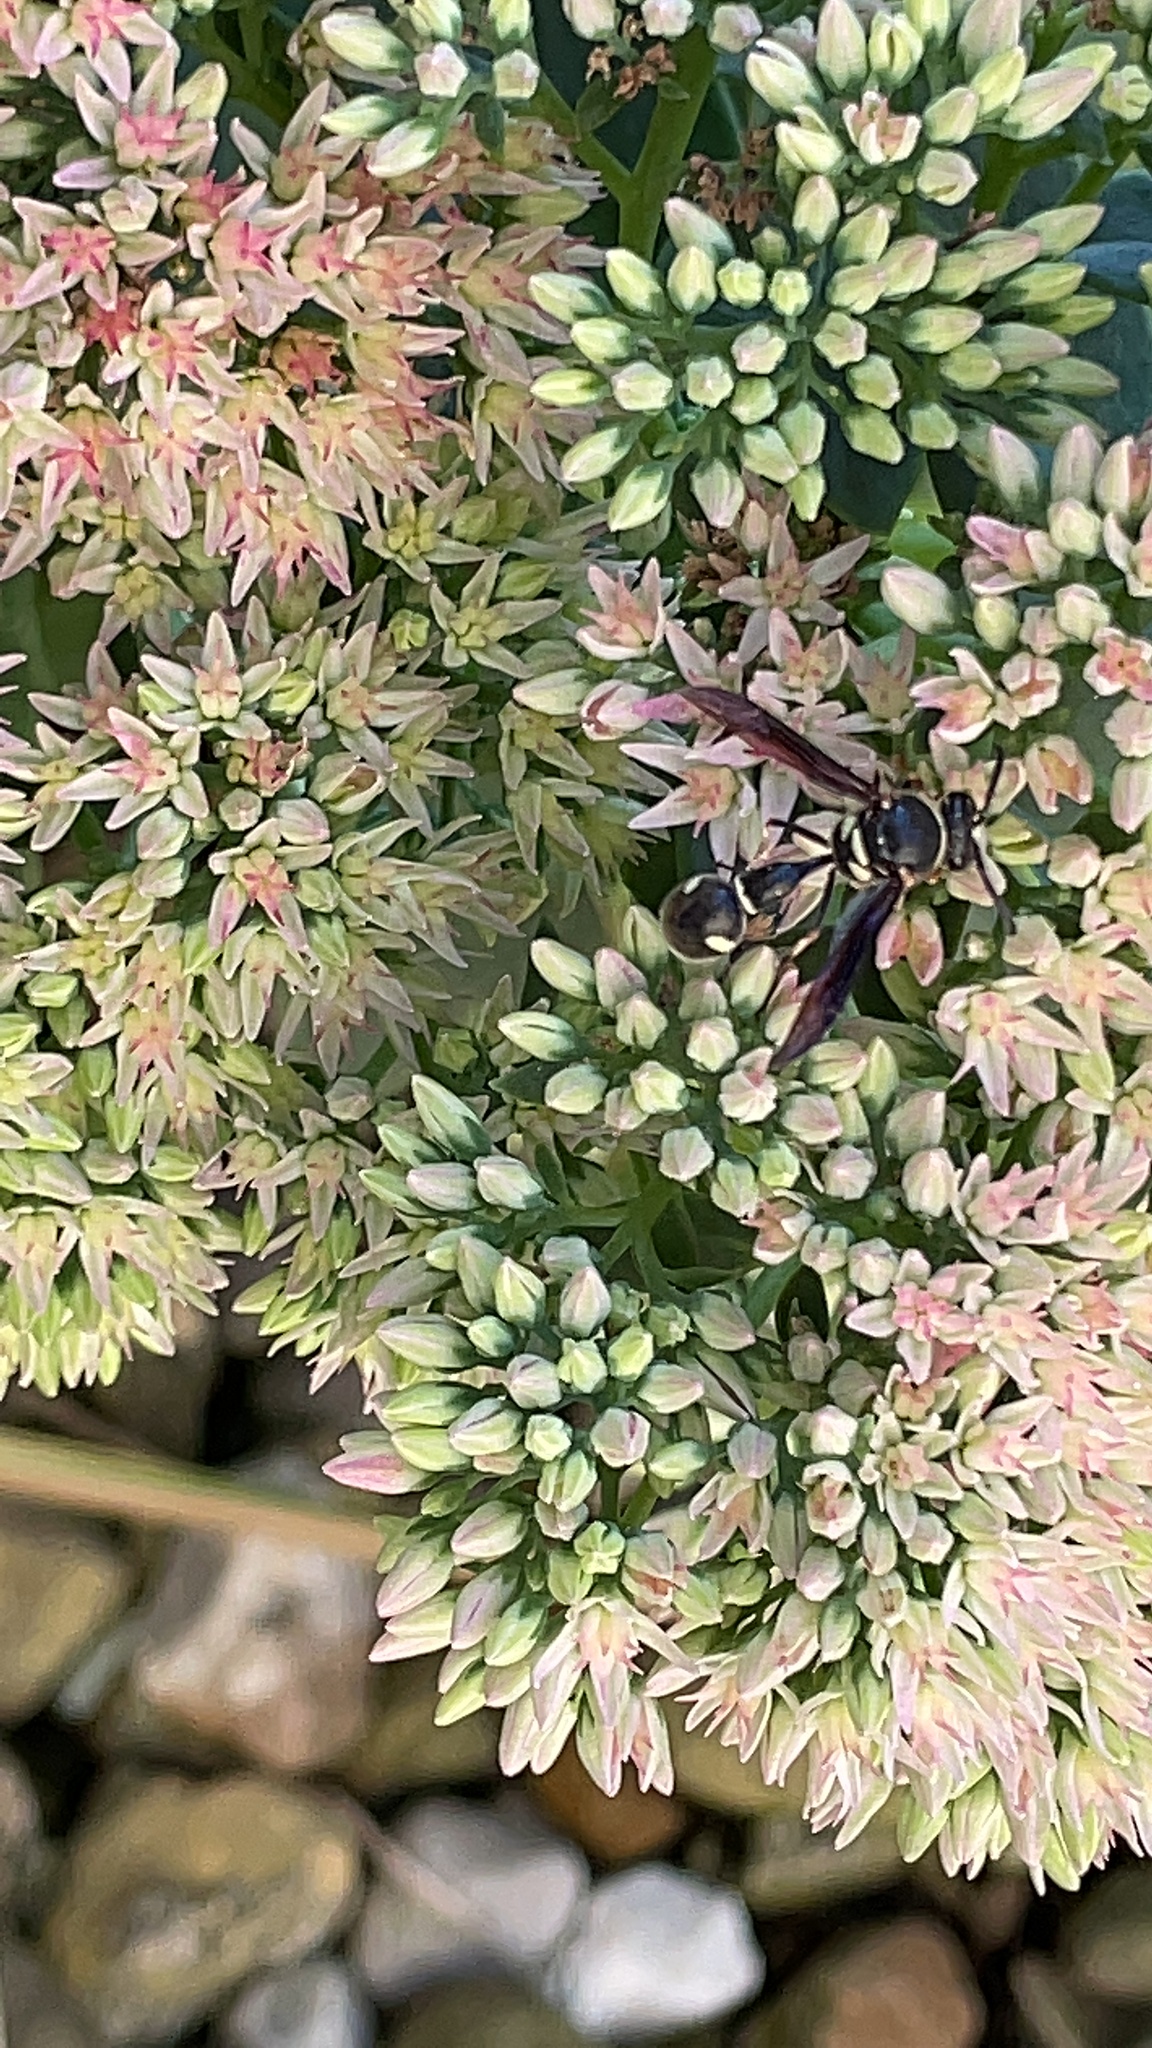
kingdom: Animalia
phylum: Arthropoda
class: Insecta
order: Hymenoptera
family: Vespidae
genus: Eumenes
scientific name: Eumenes fraternus
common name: Fraternal potter wasp
